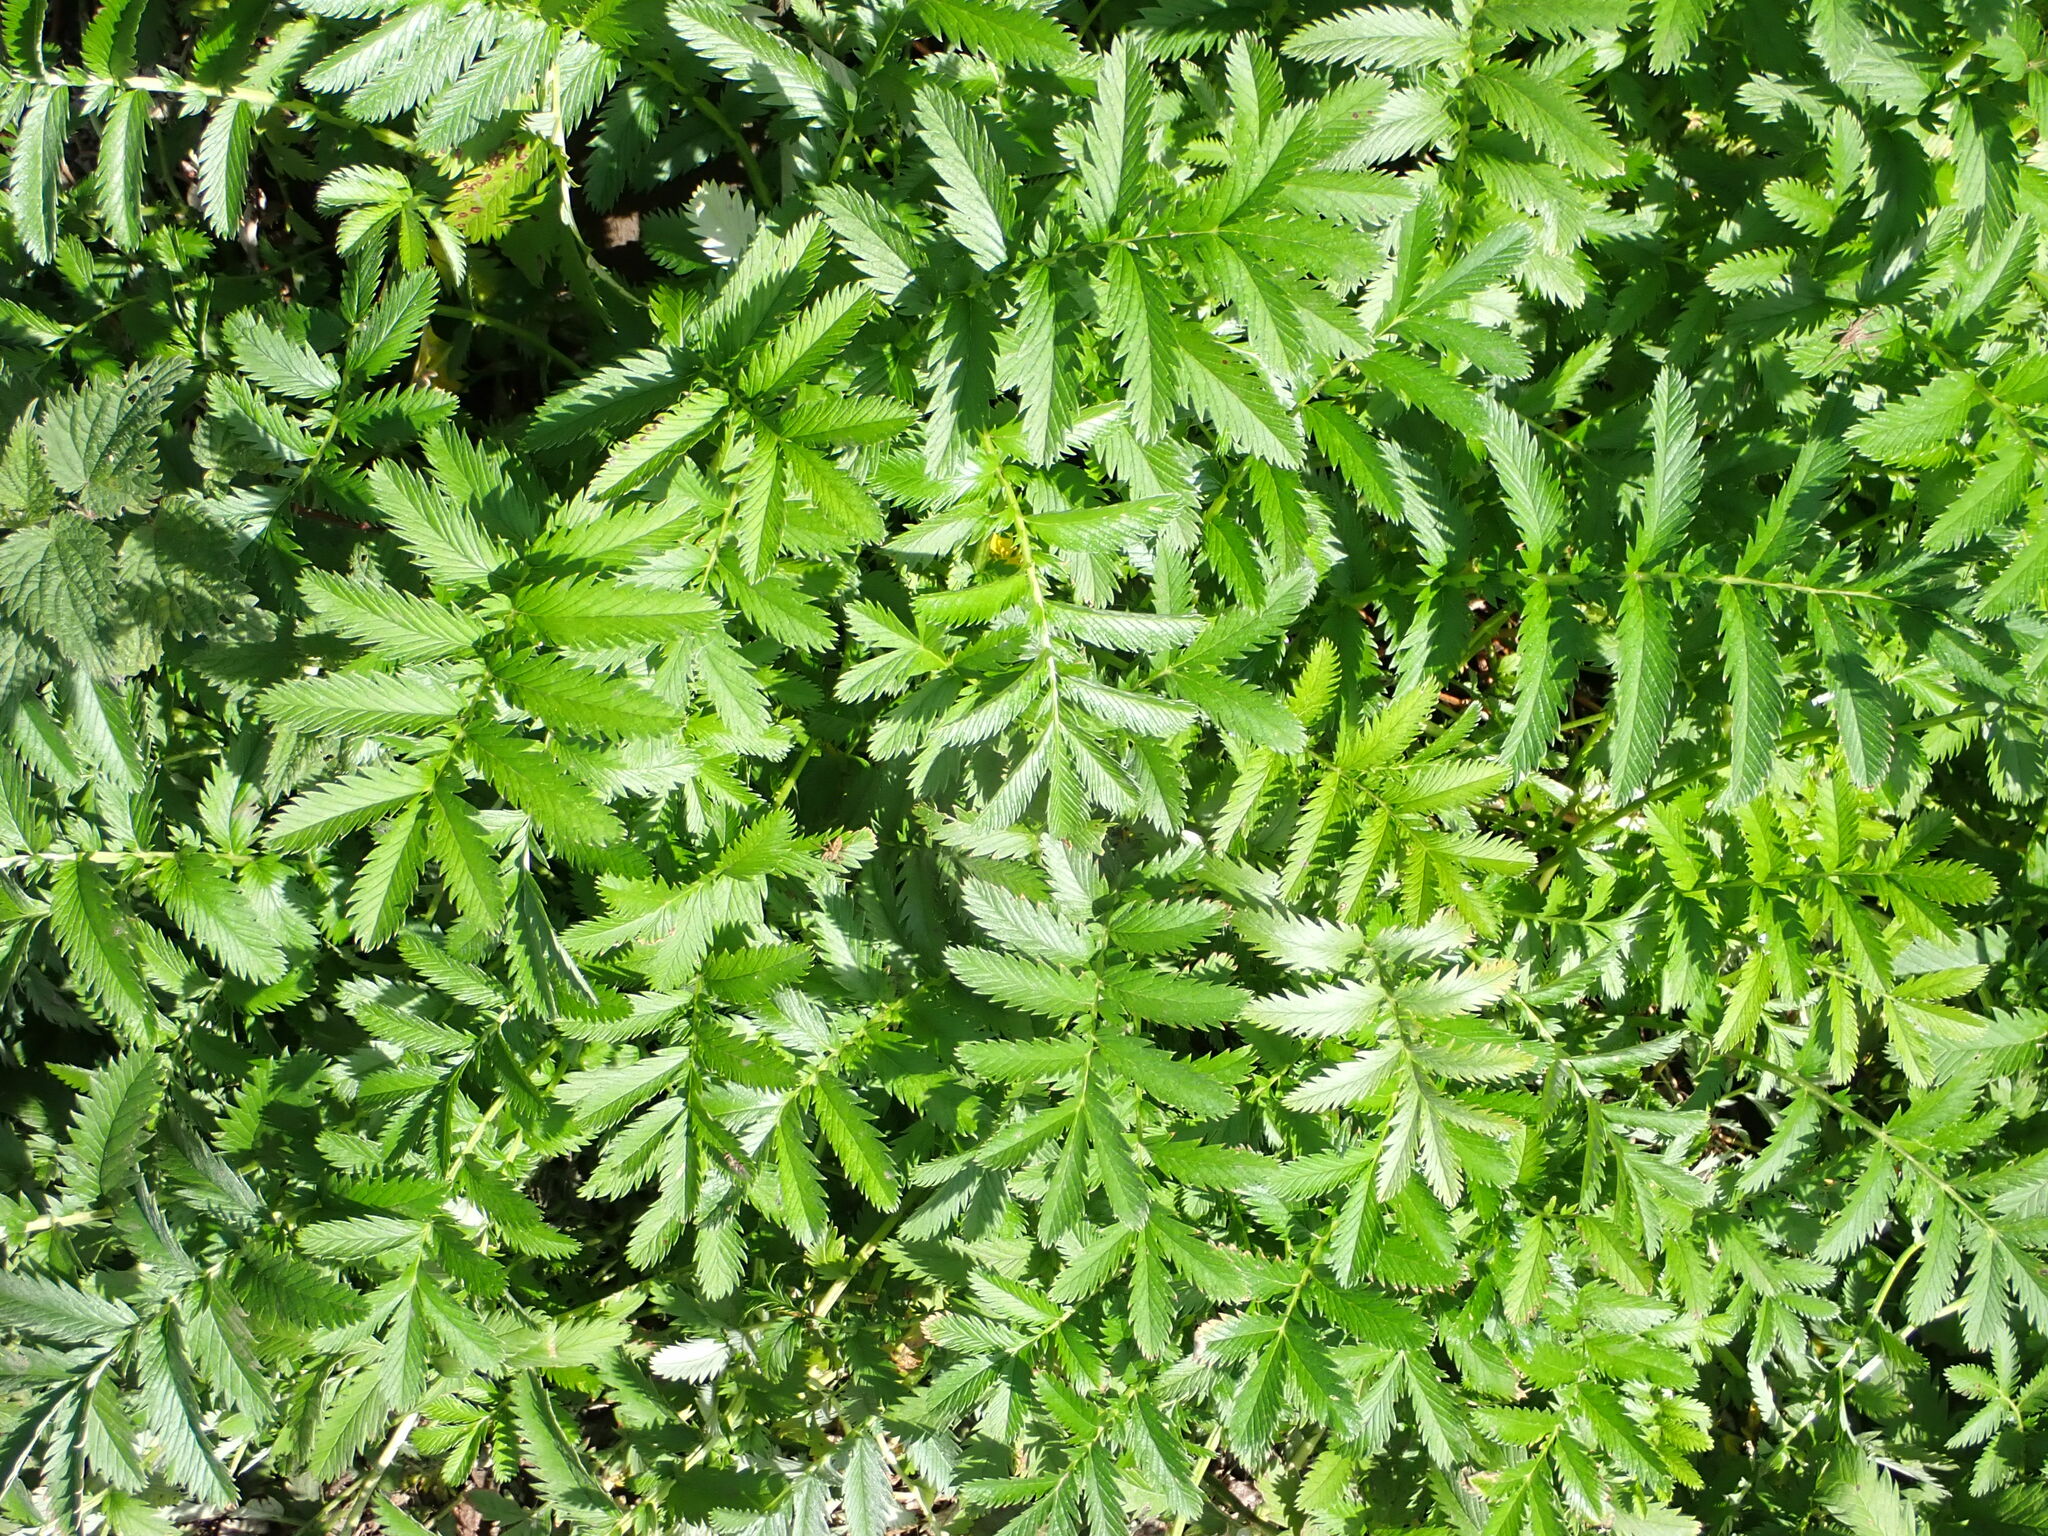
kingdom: Plantae
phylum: Tracheophyta
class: Magnoliopsida
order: Rosales
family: Rosaceae
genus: Argentina
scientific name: Argentina anserina
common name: Common silverweed
